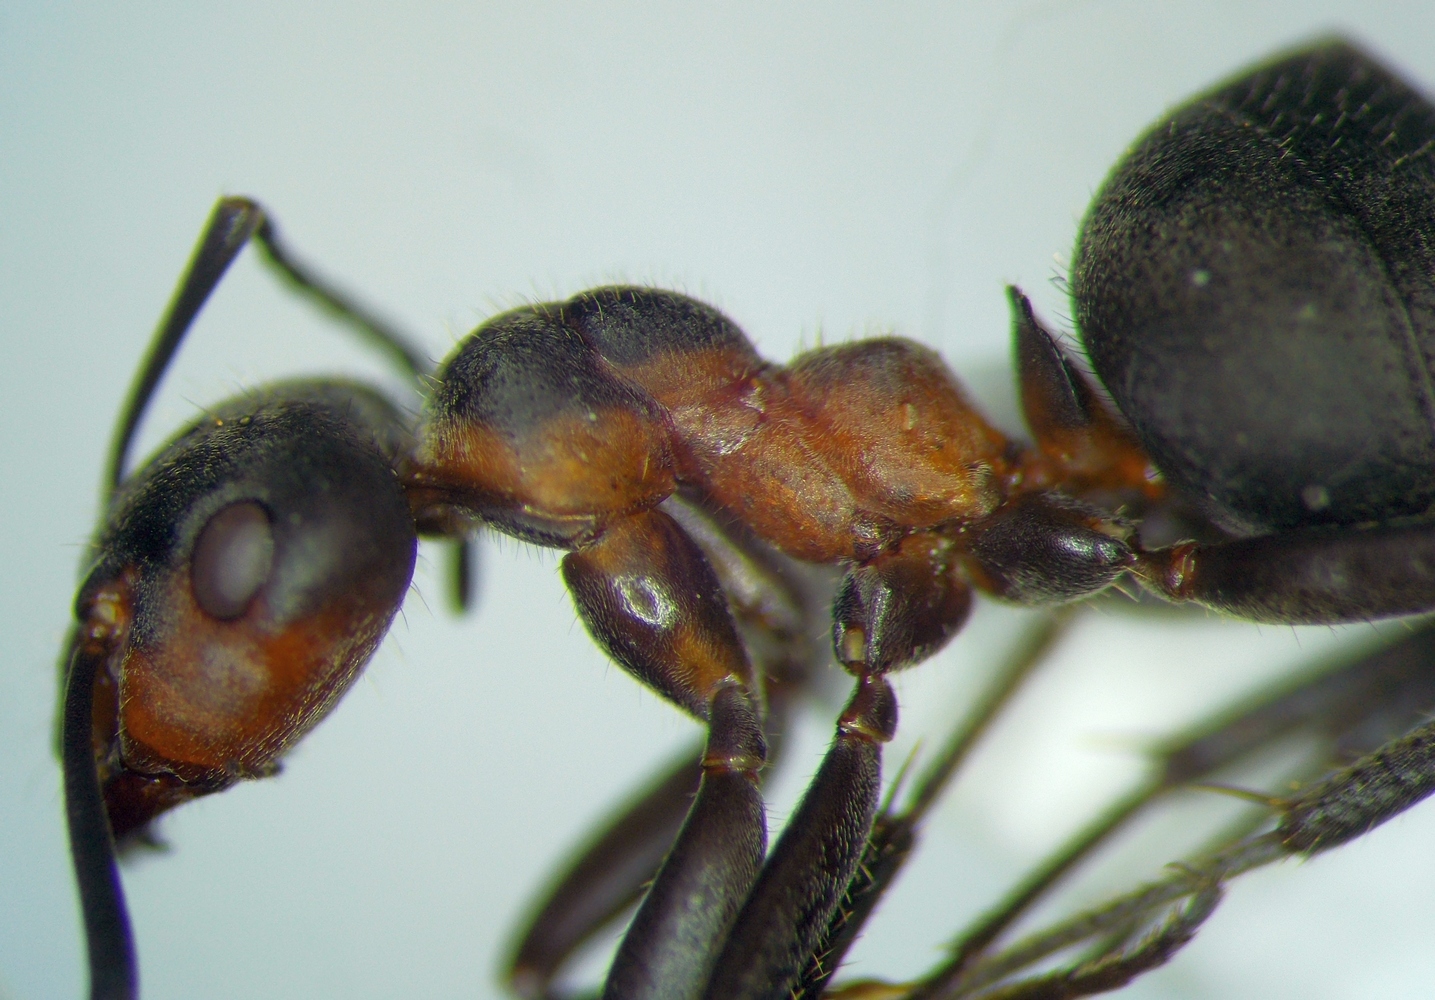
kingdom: Animalia
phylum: Arthropoda
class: Insecta
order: Hymenoptera
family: Formicidae
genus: Formica
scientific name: Formica pratensis
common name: European red wood ant
